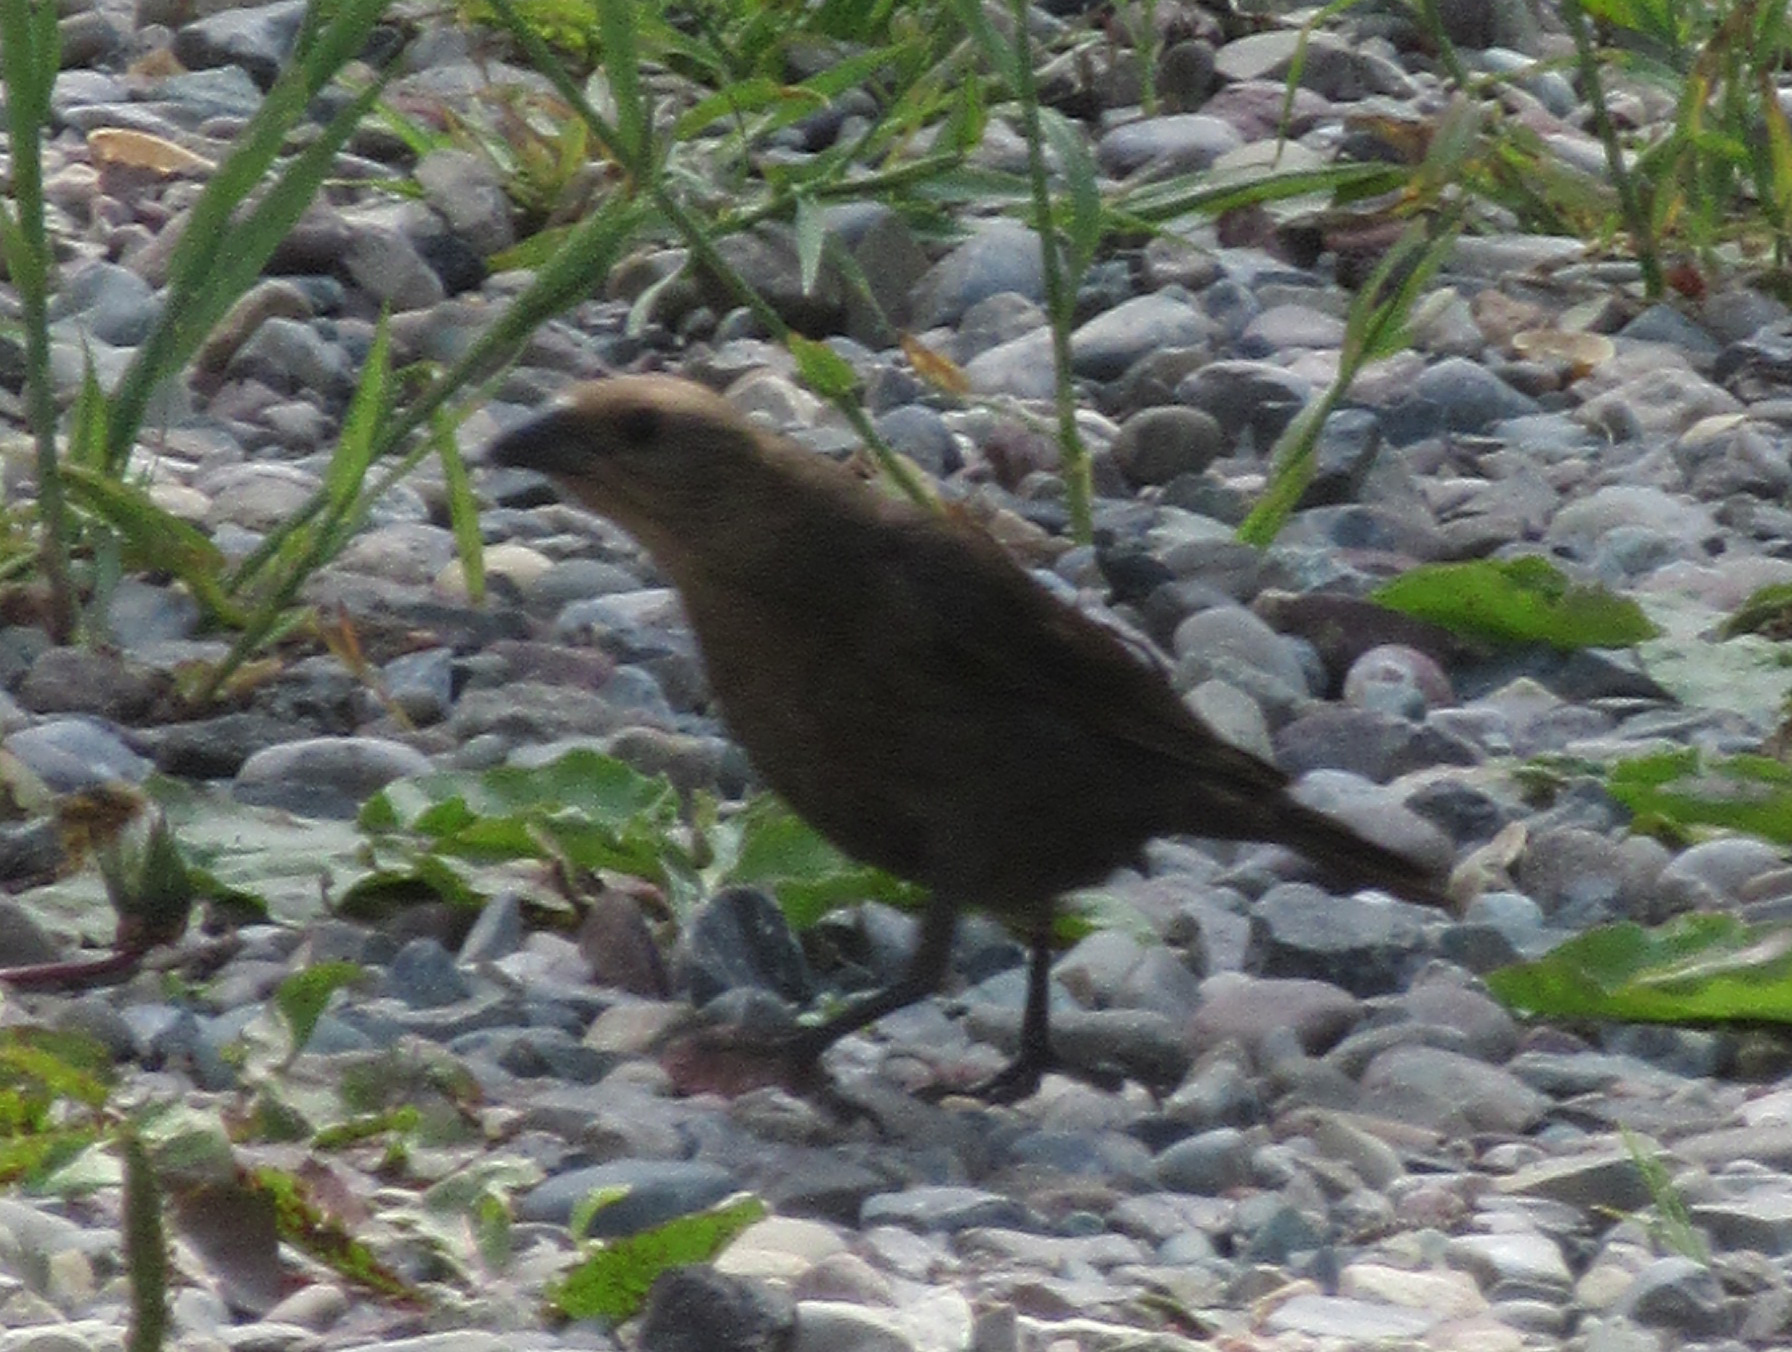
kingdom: Animalia
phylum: Chordata
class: Aves
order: Passeriformes
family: Icteridae
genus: Molothrus
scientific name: Molothrus ater
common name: Brown-headed cowbird
